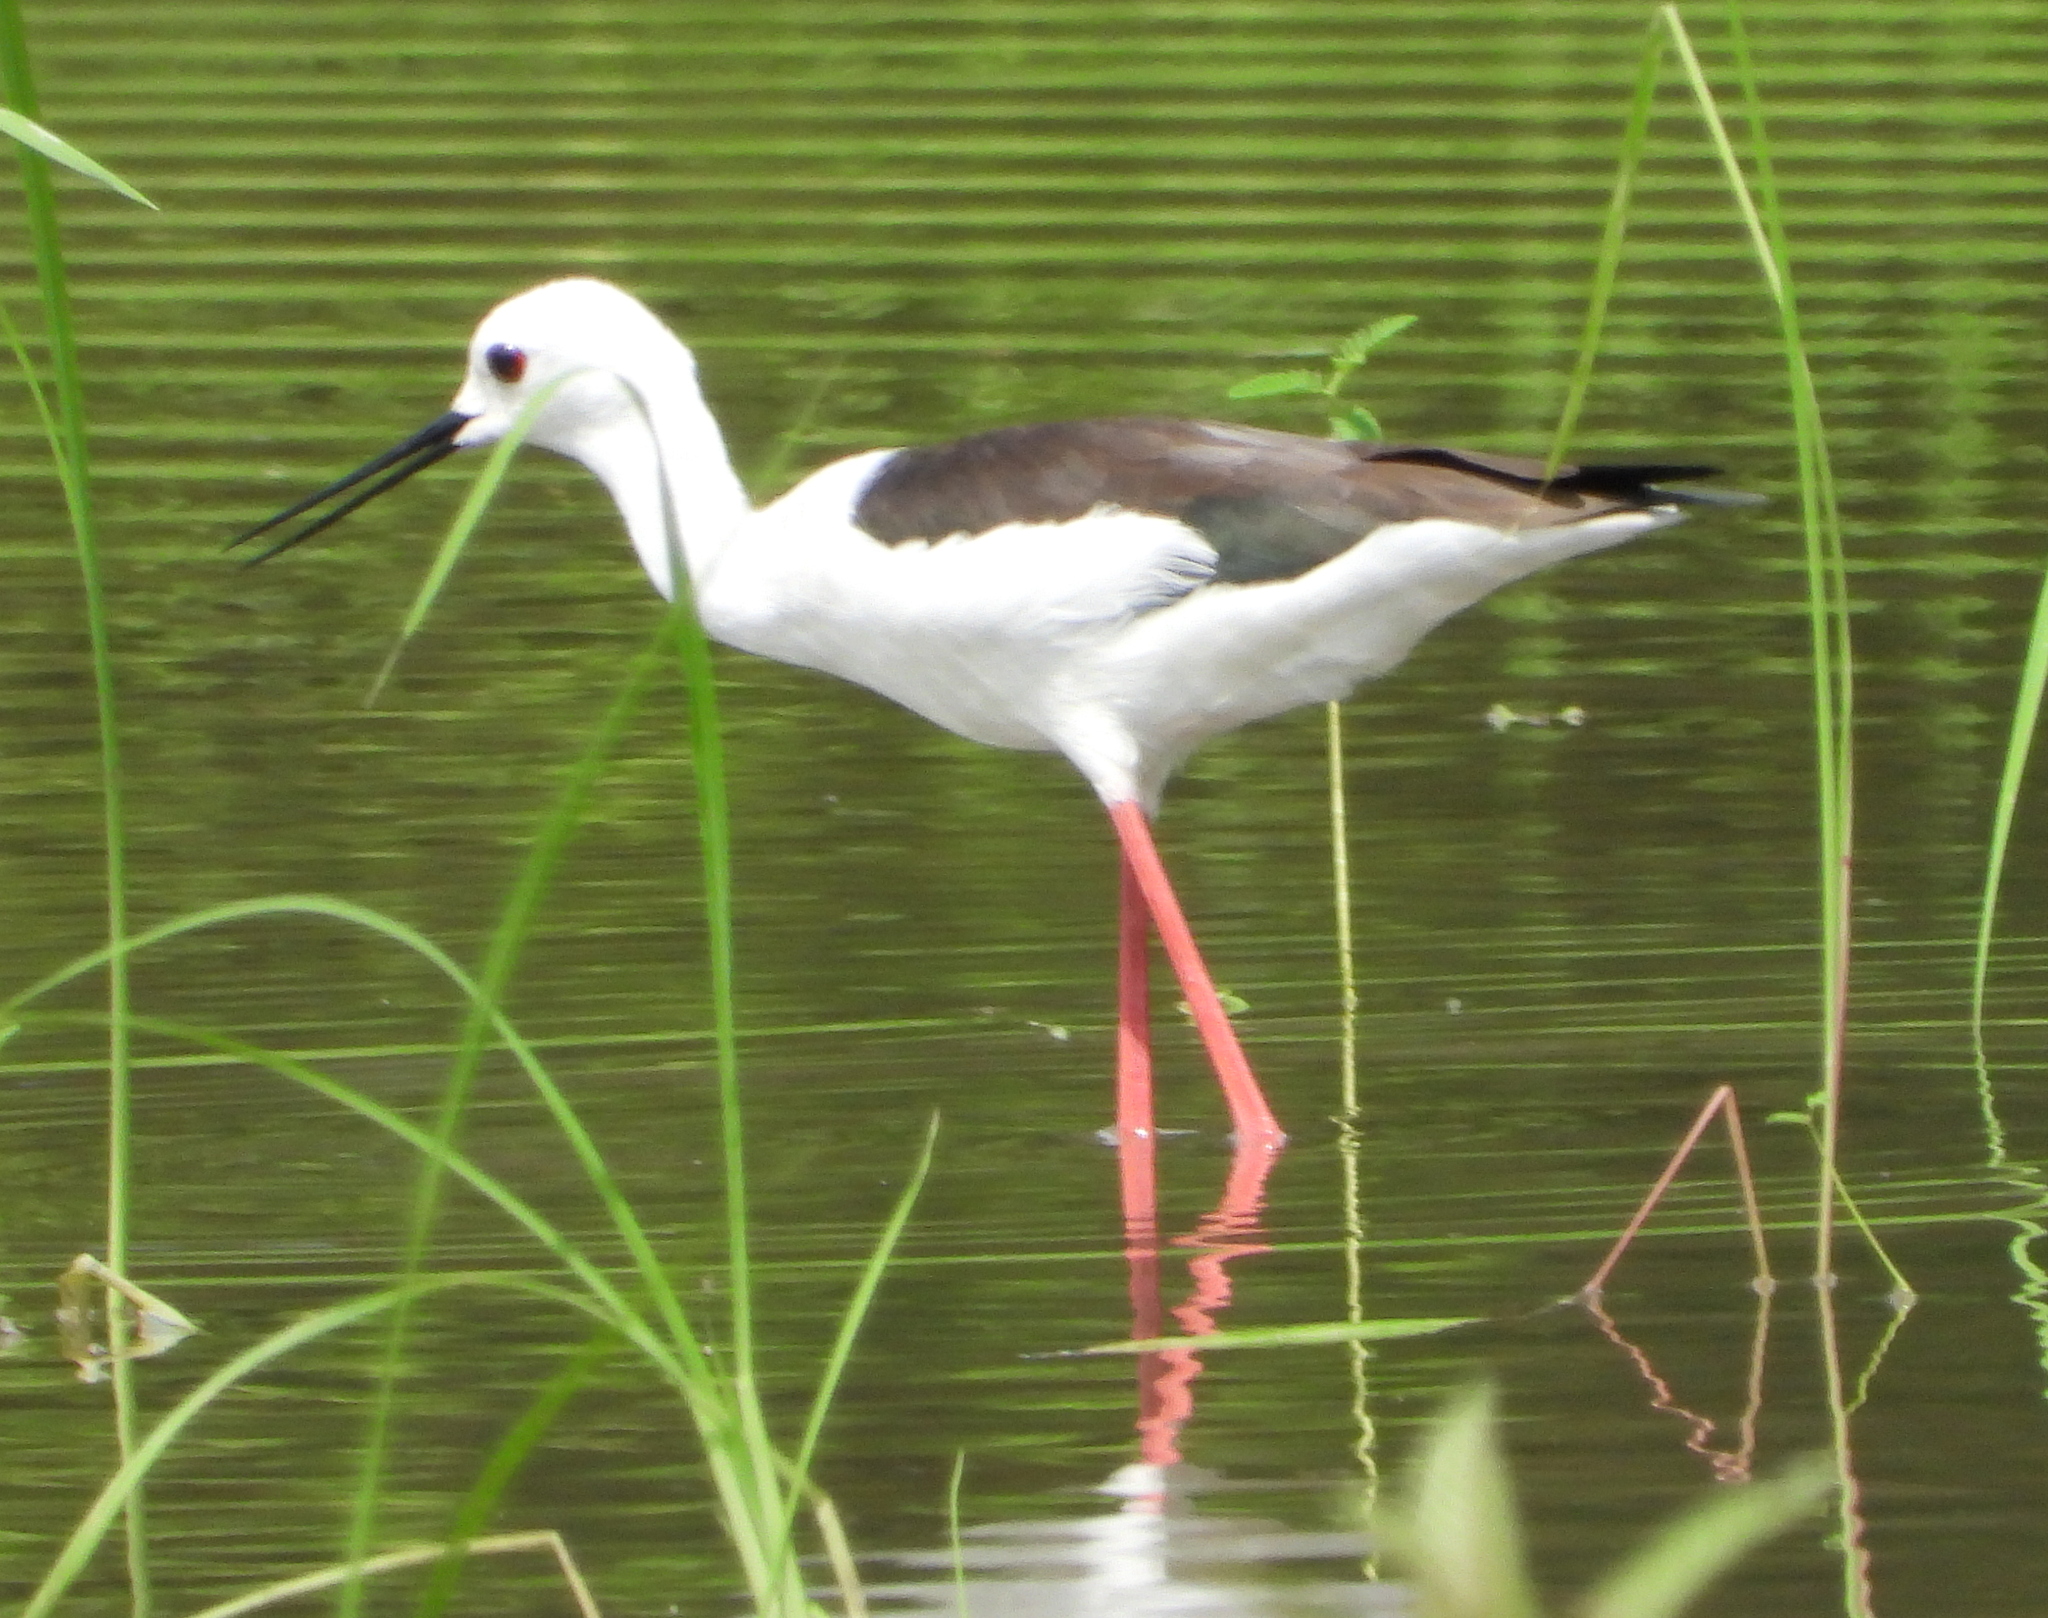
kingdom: Animalia
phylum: Chordata
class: Aves
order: Charadriiformes
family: Recurvirostridae
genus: Himantopus
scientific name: Himantopus himantopus
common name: Black-winged stilt
